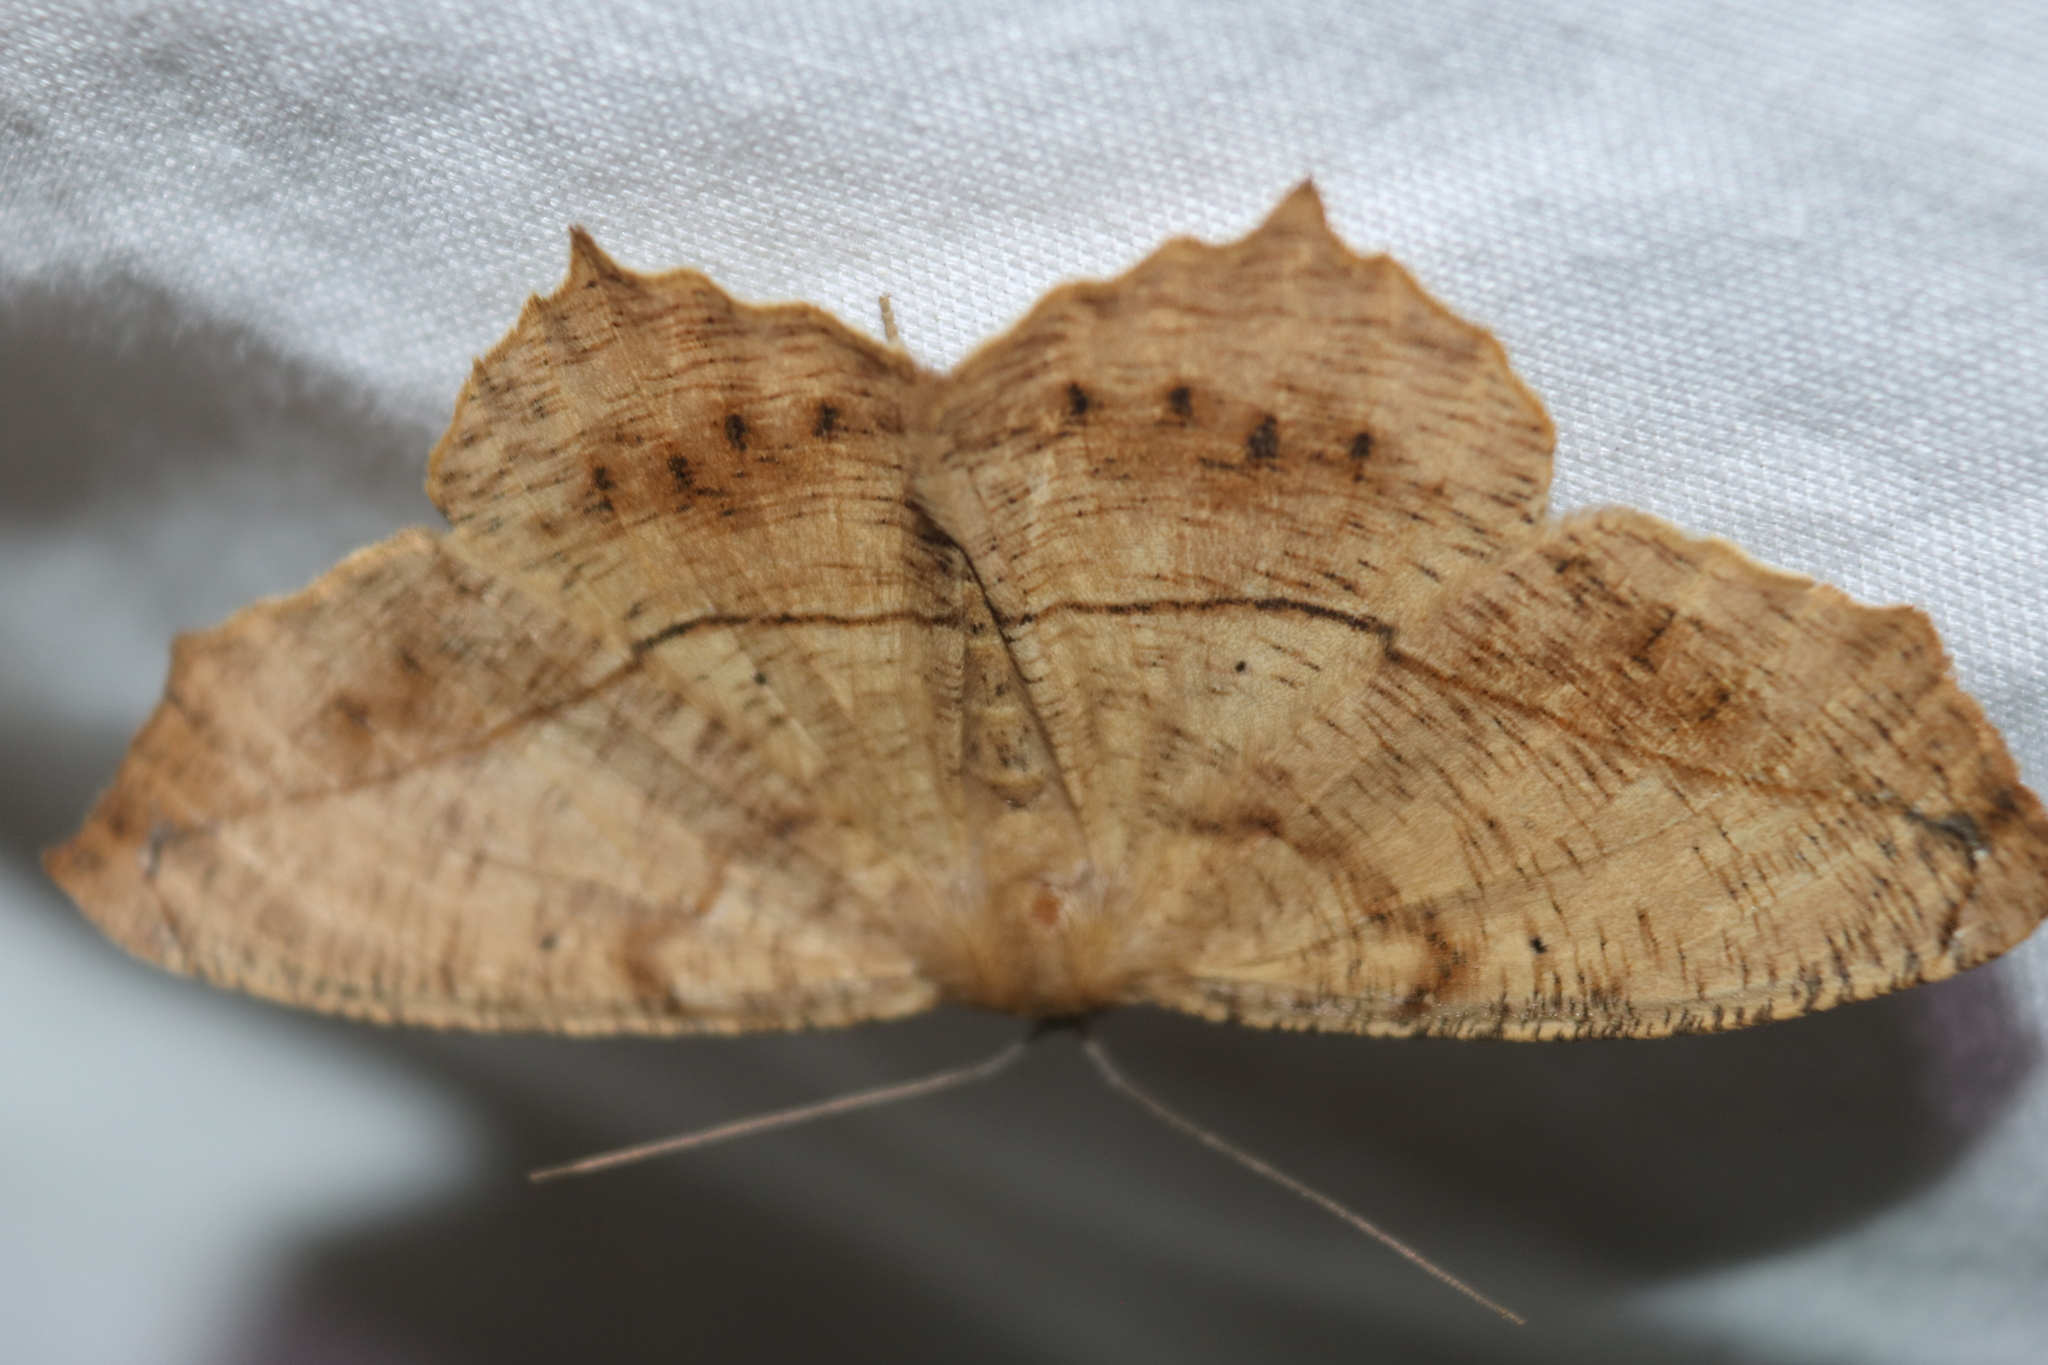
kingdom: Animalia
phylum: Arthropoda
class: Insecta
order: Lepidoptera
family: Geometridae
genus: Prochoerodes
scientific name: Prochoerodes lineola
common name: Large maple spanworm
